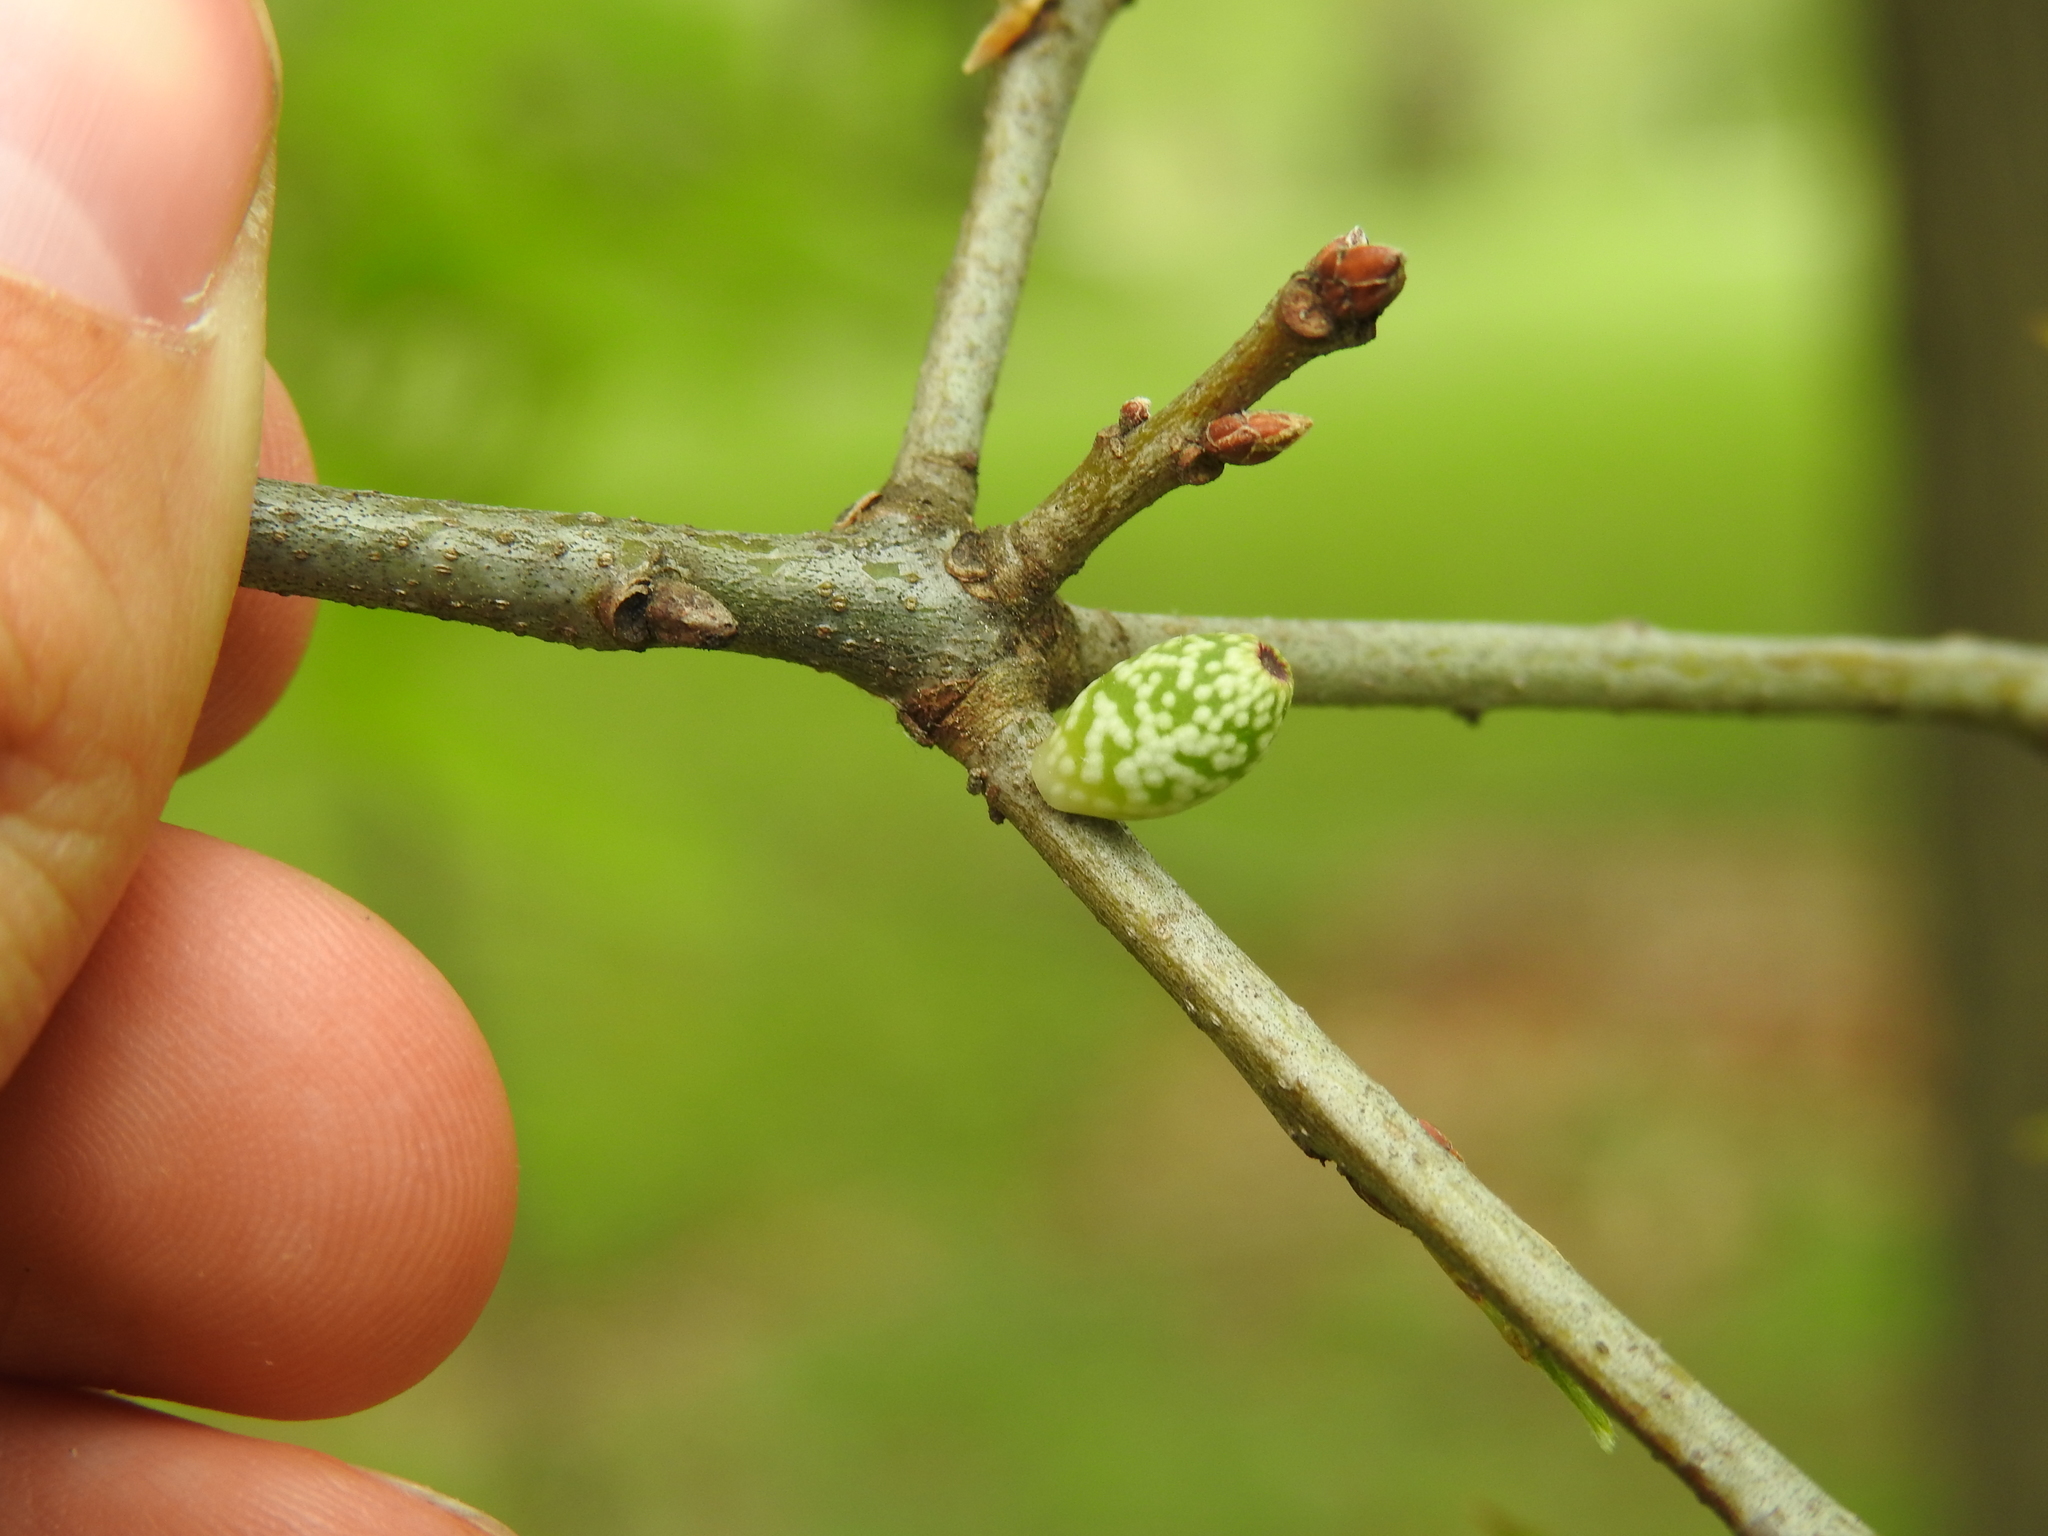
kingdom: Animalia
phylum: Arthropoda
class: Insecta
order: Hymenoptera
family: Cynipidae
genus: Amphibolips
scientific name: Amphibolips
